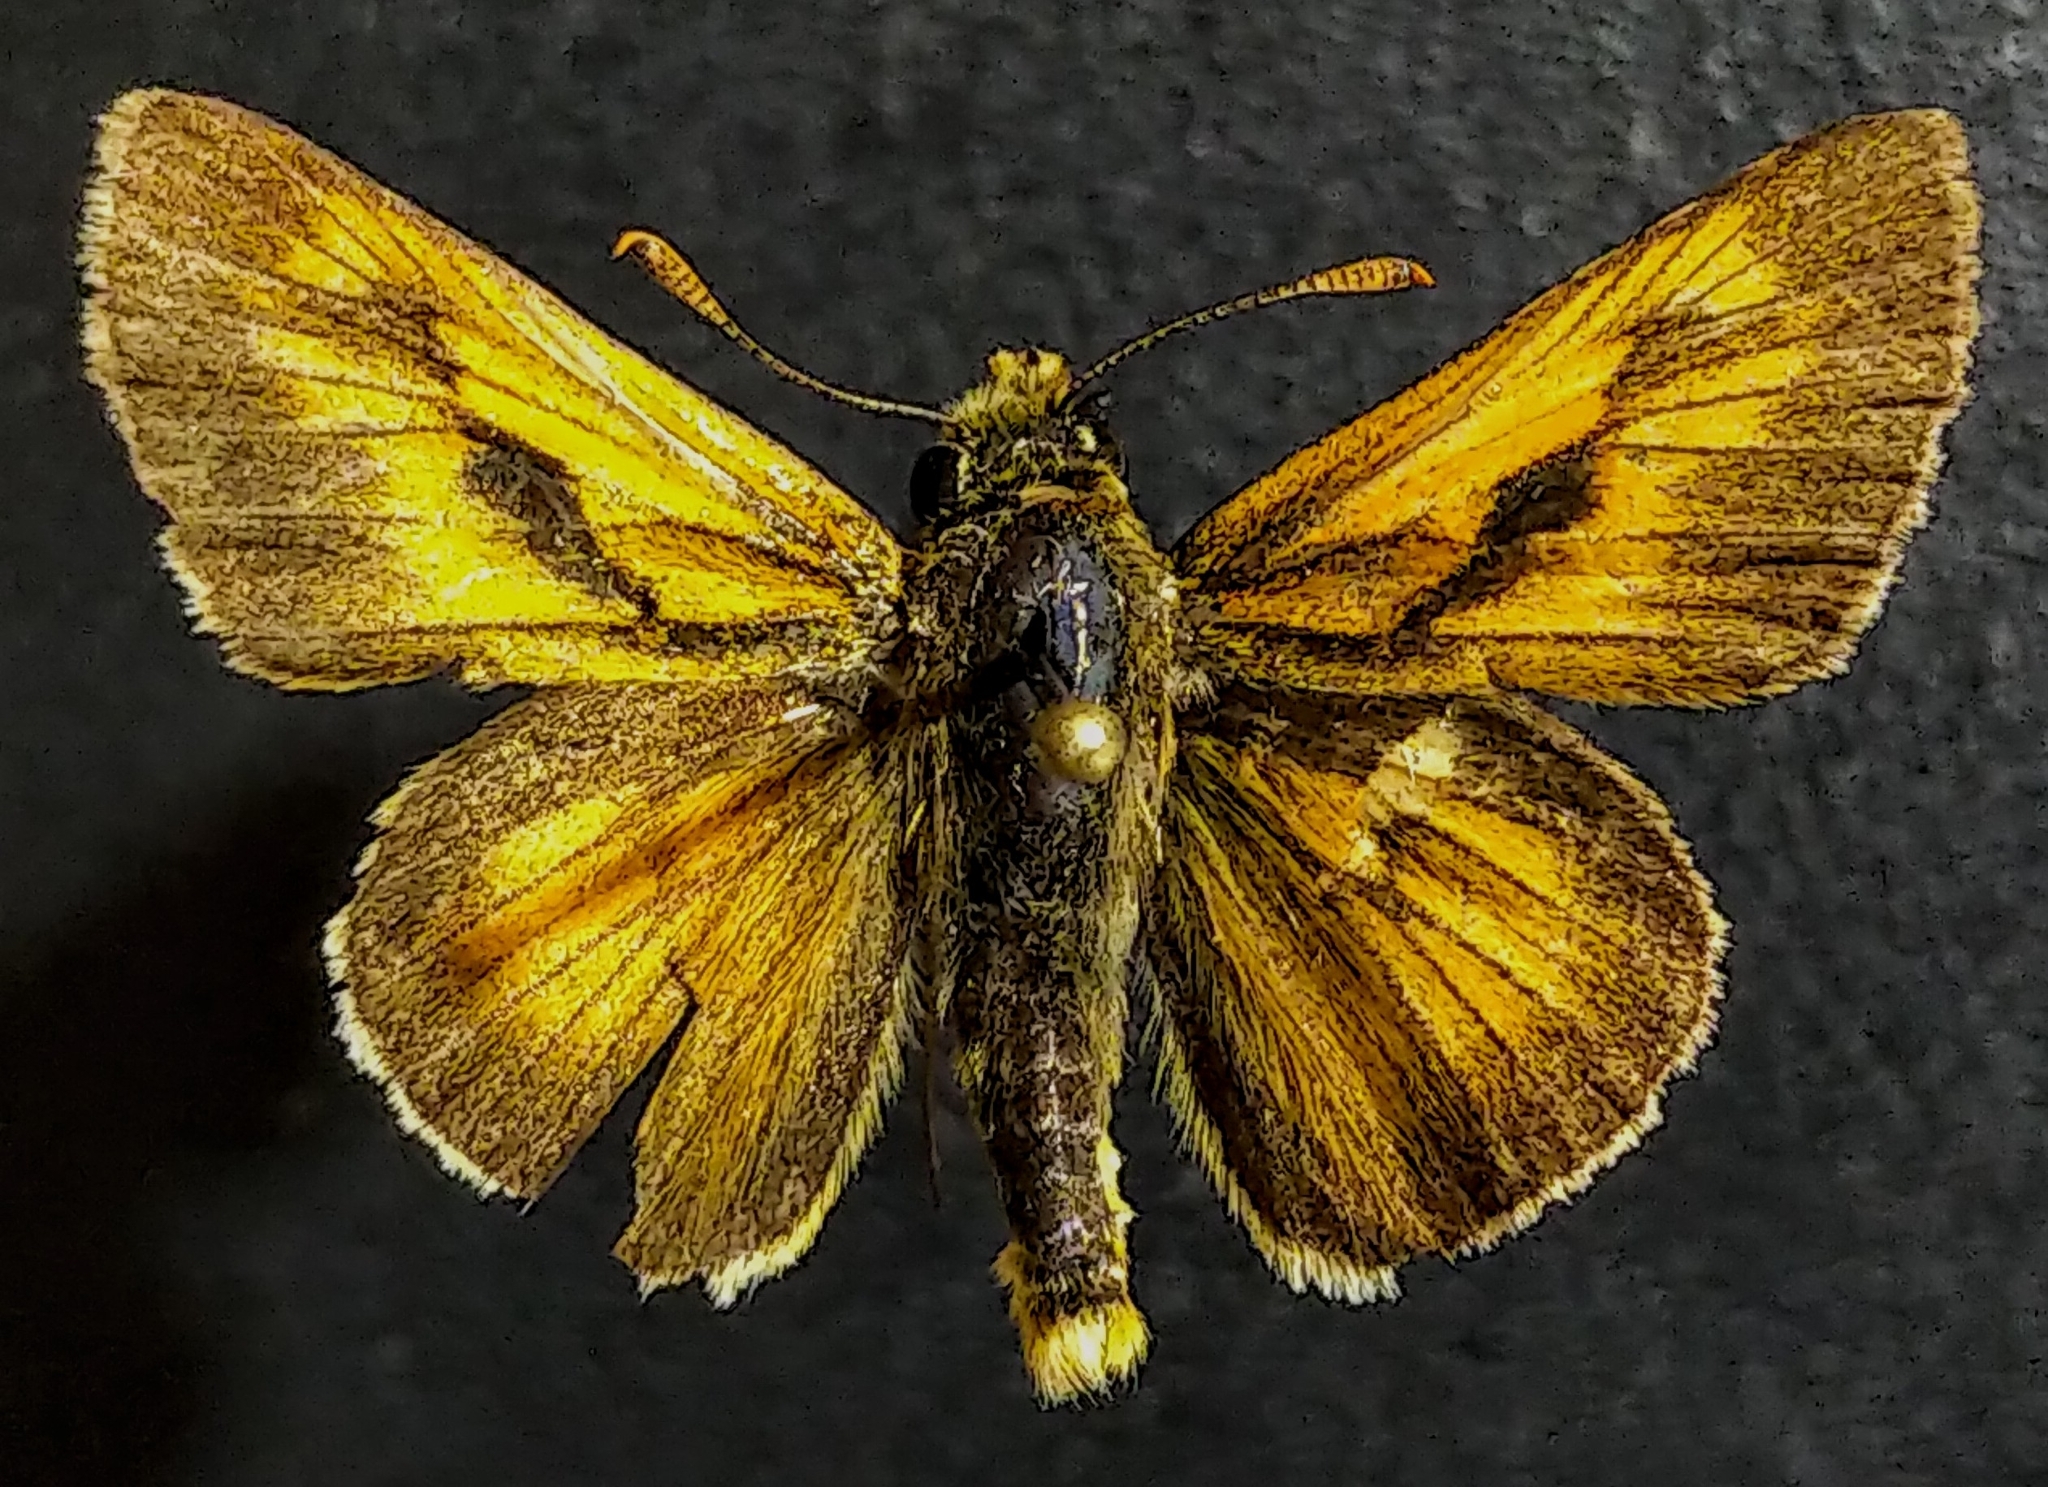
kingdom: Animalia
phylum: Arthropoda
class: Insecta
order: Lepidoptera
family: Hesperiidae
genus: Polites
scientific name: Polites mystic
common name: Long dash
